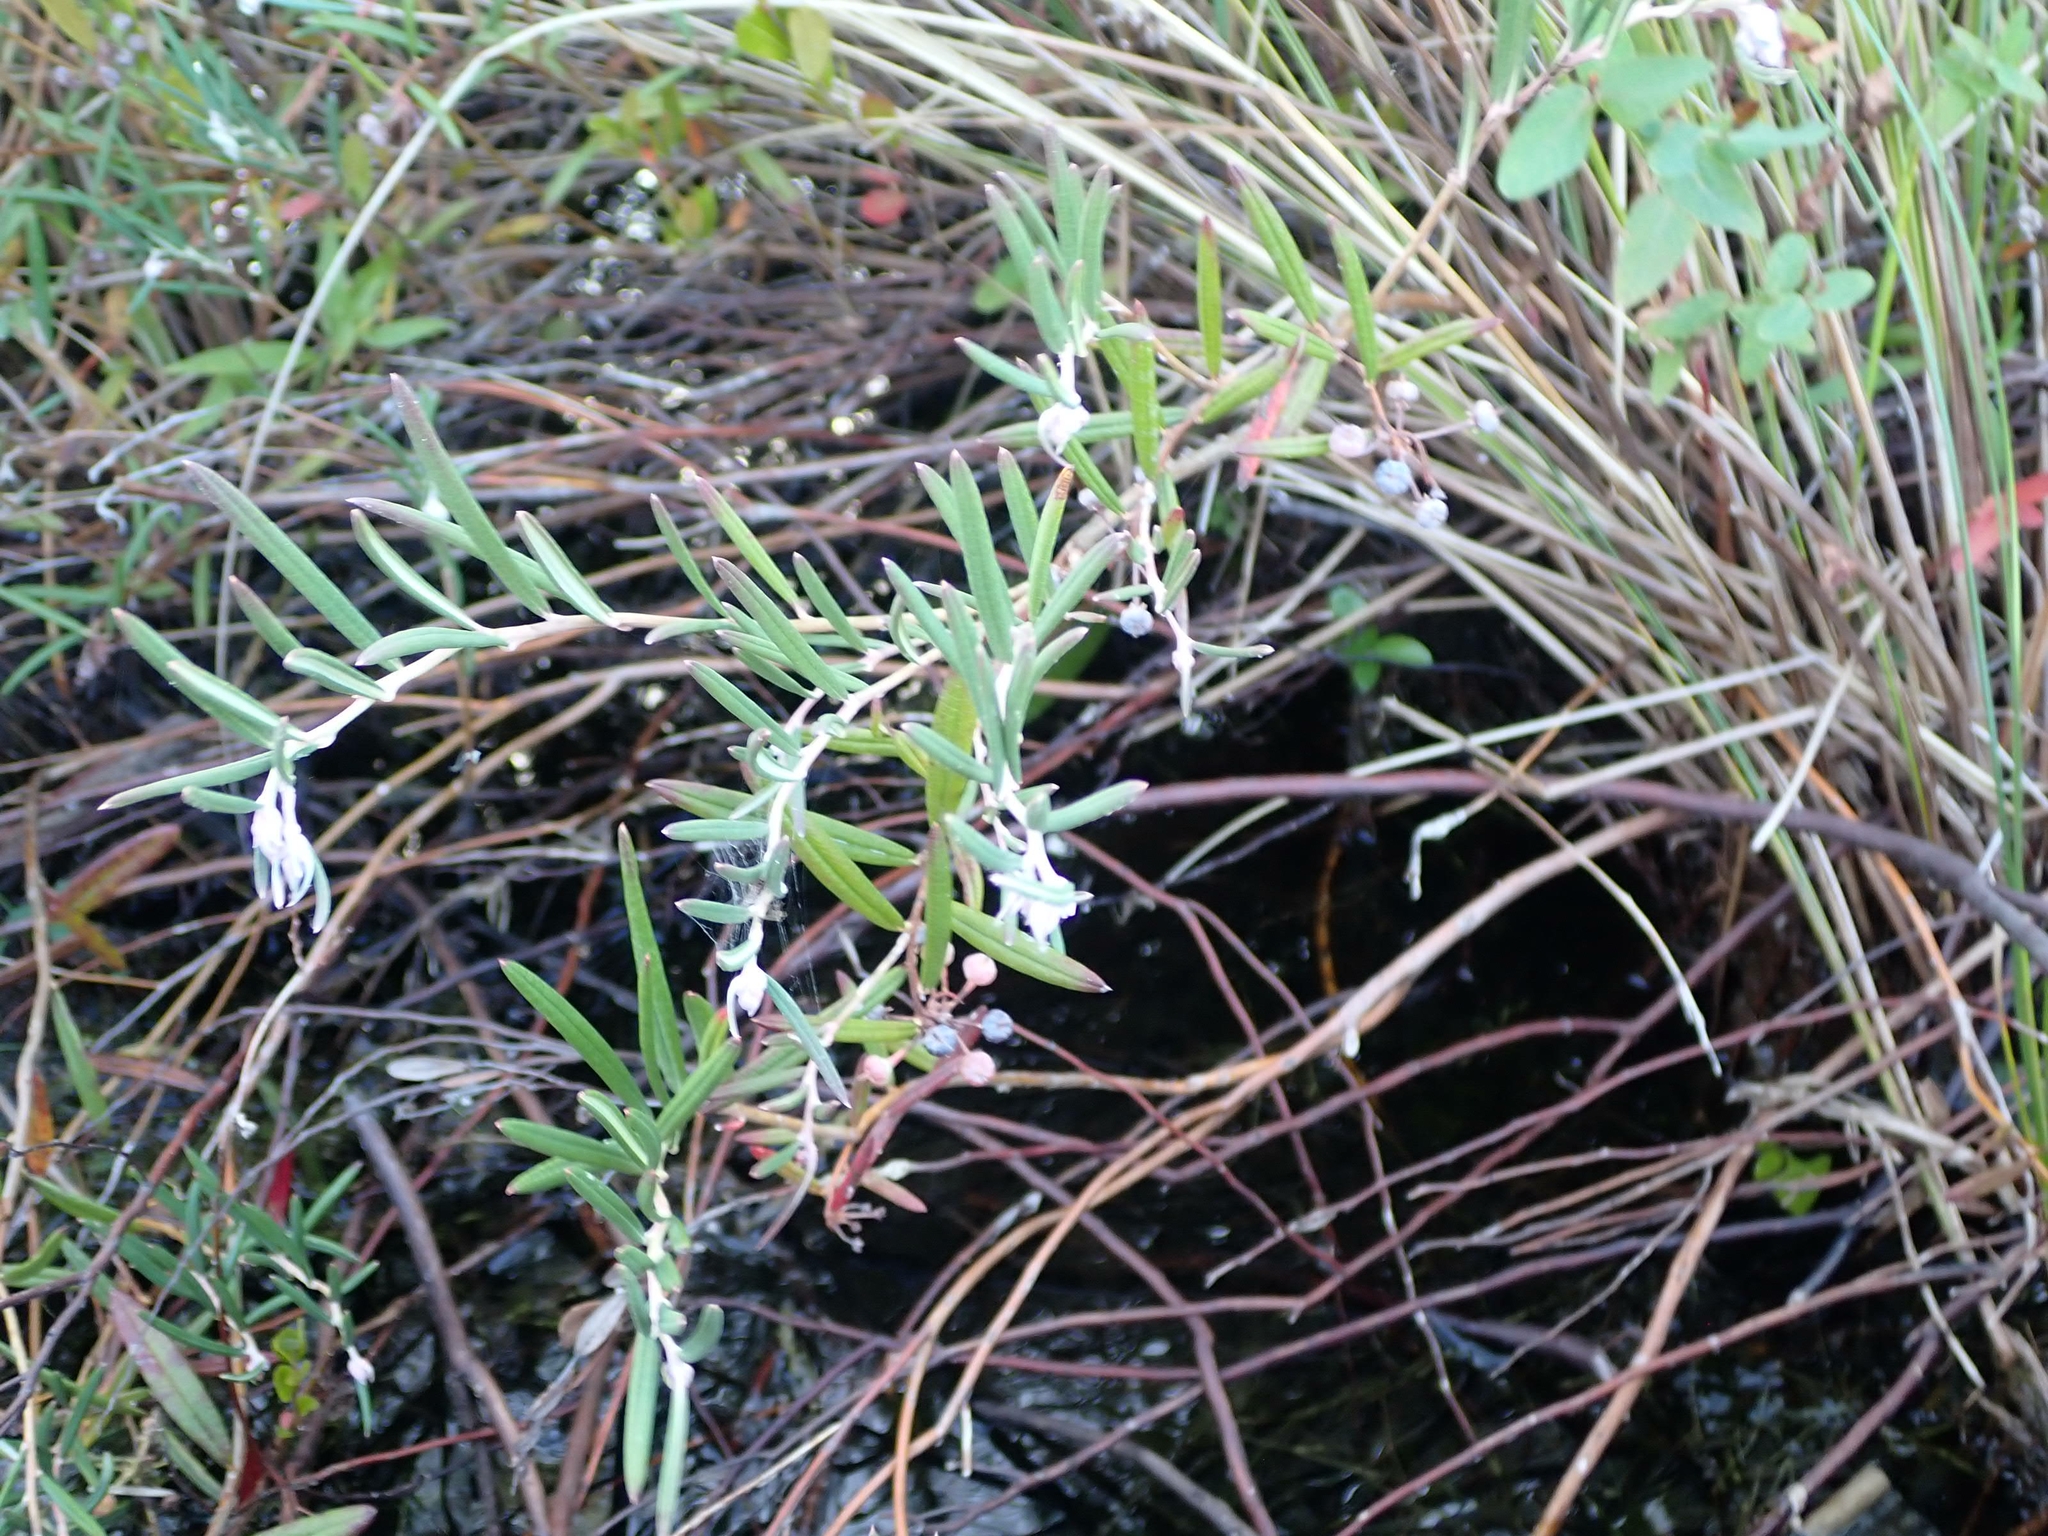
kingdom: Plantae
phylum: Tracheophyta
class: Magnoliopsida
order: Ericales
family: Ericaceae
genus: Andromeda
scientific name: Andromeda polifolia
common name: Bog-rosemary
